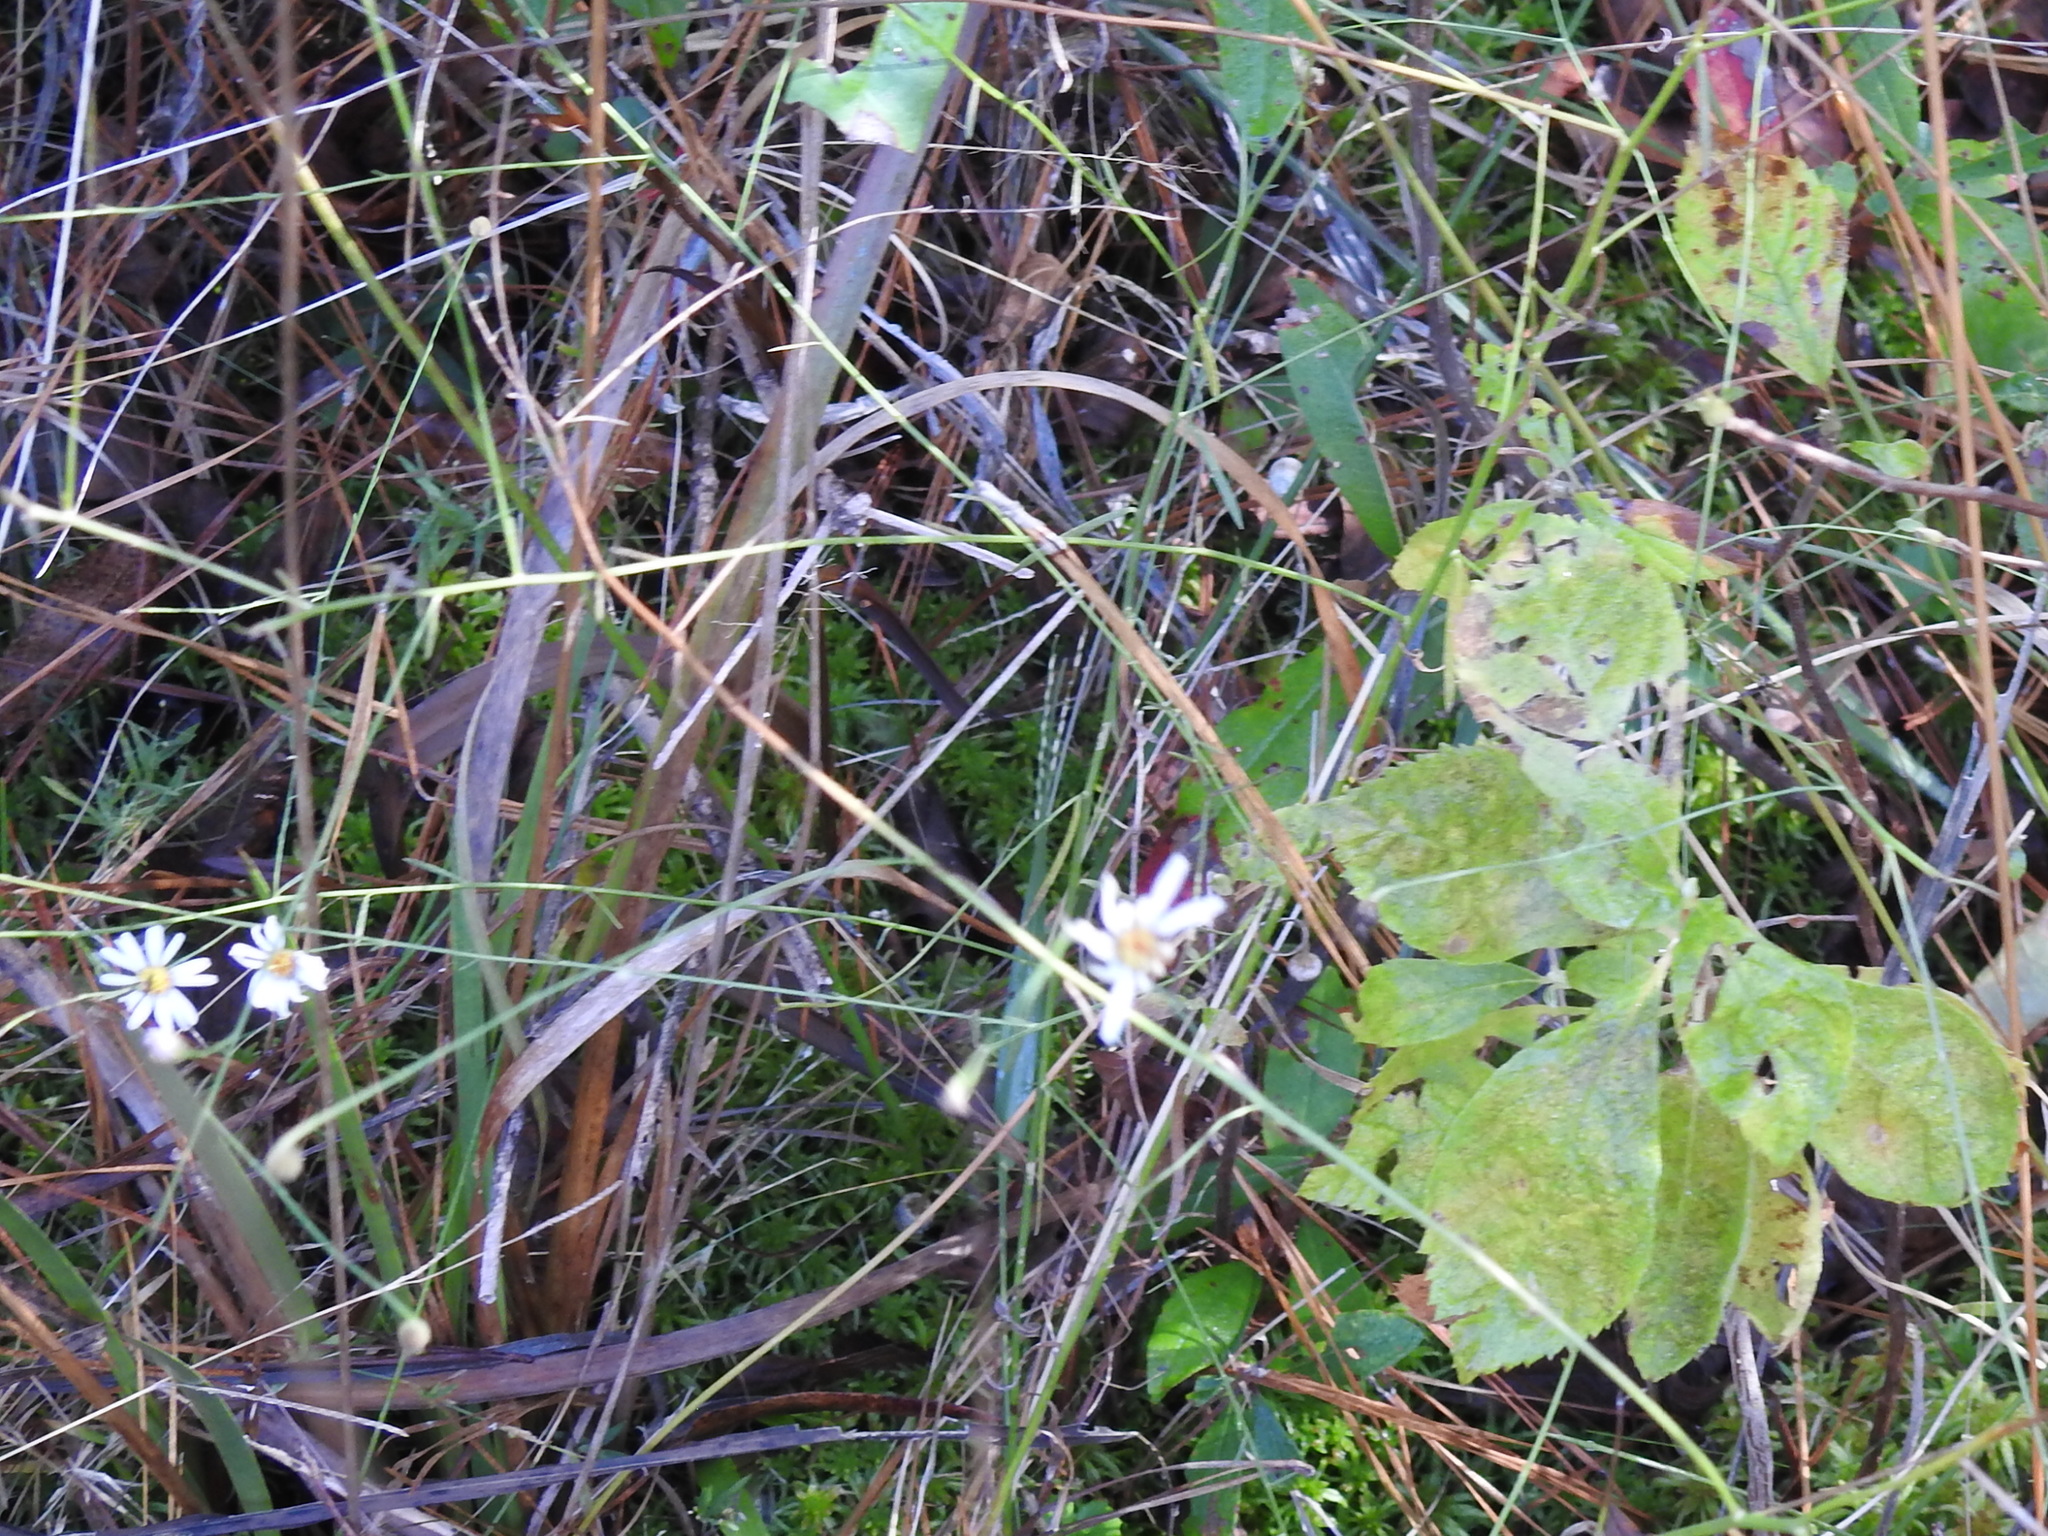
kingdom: Plantae
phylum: Tracheophyta
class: Magnoliopsida
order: Asterales
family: Asteraceae
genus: Boltonia
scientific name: Boltonia diffusa
